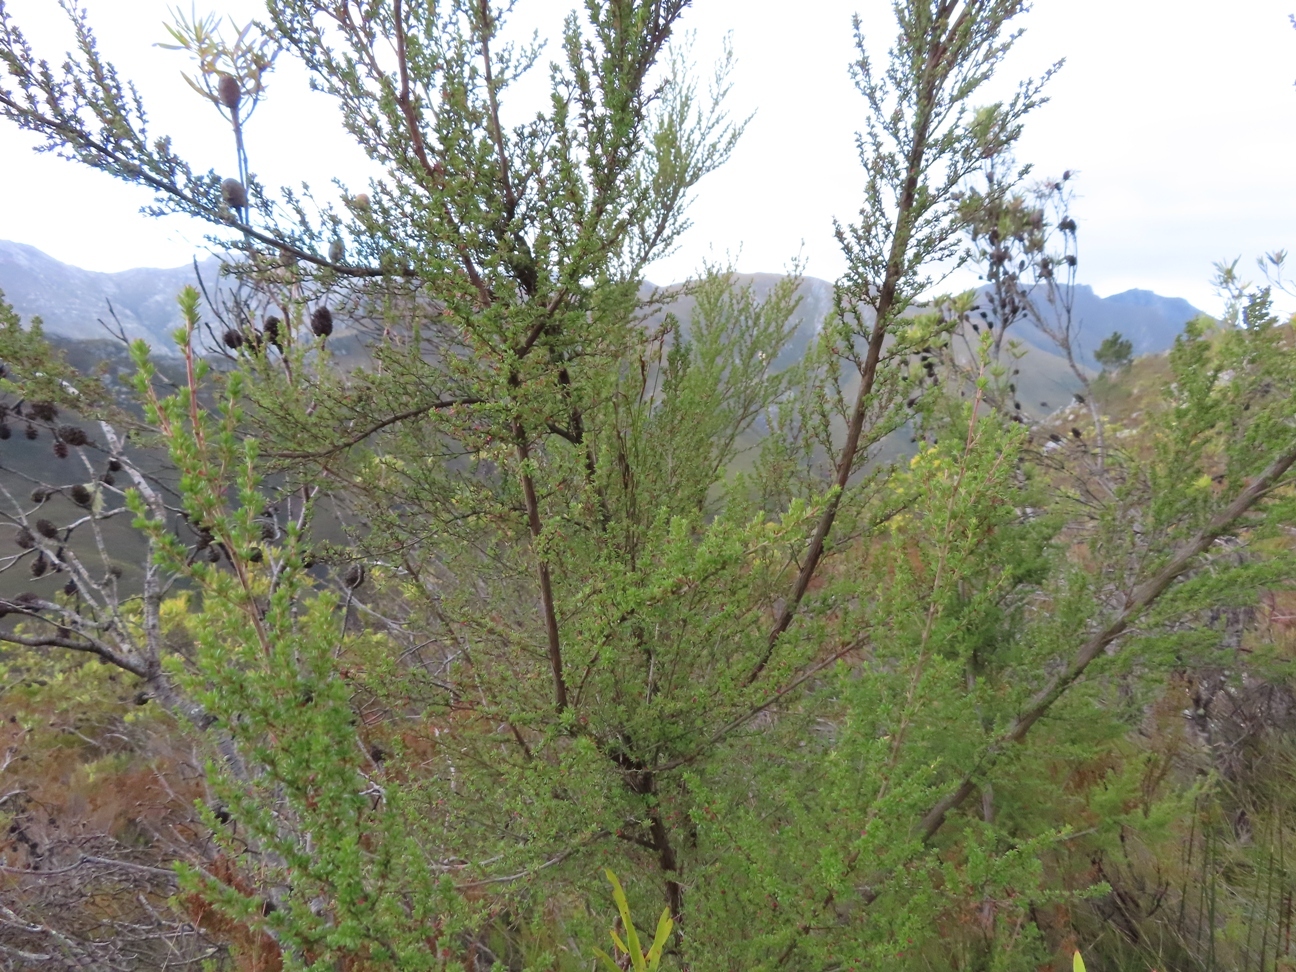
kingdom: Plantae
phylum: Tracheophyta
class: Magnoliopsida
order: Rosales
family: Rosaceae
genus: Cliffortia
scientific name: Cliffortia serpyllifolia
